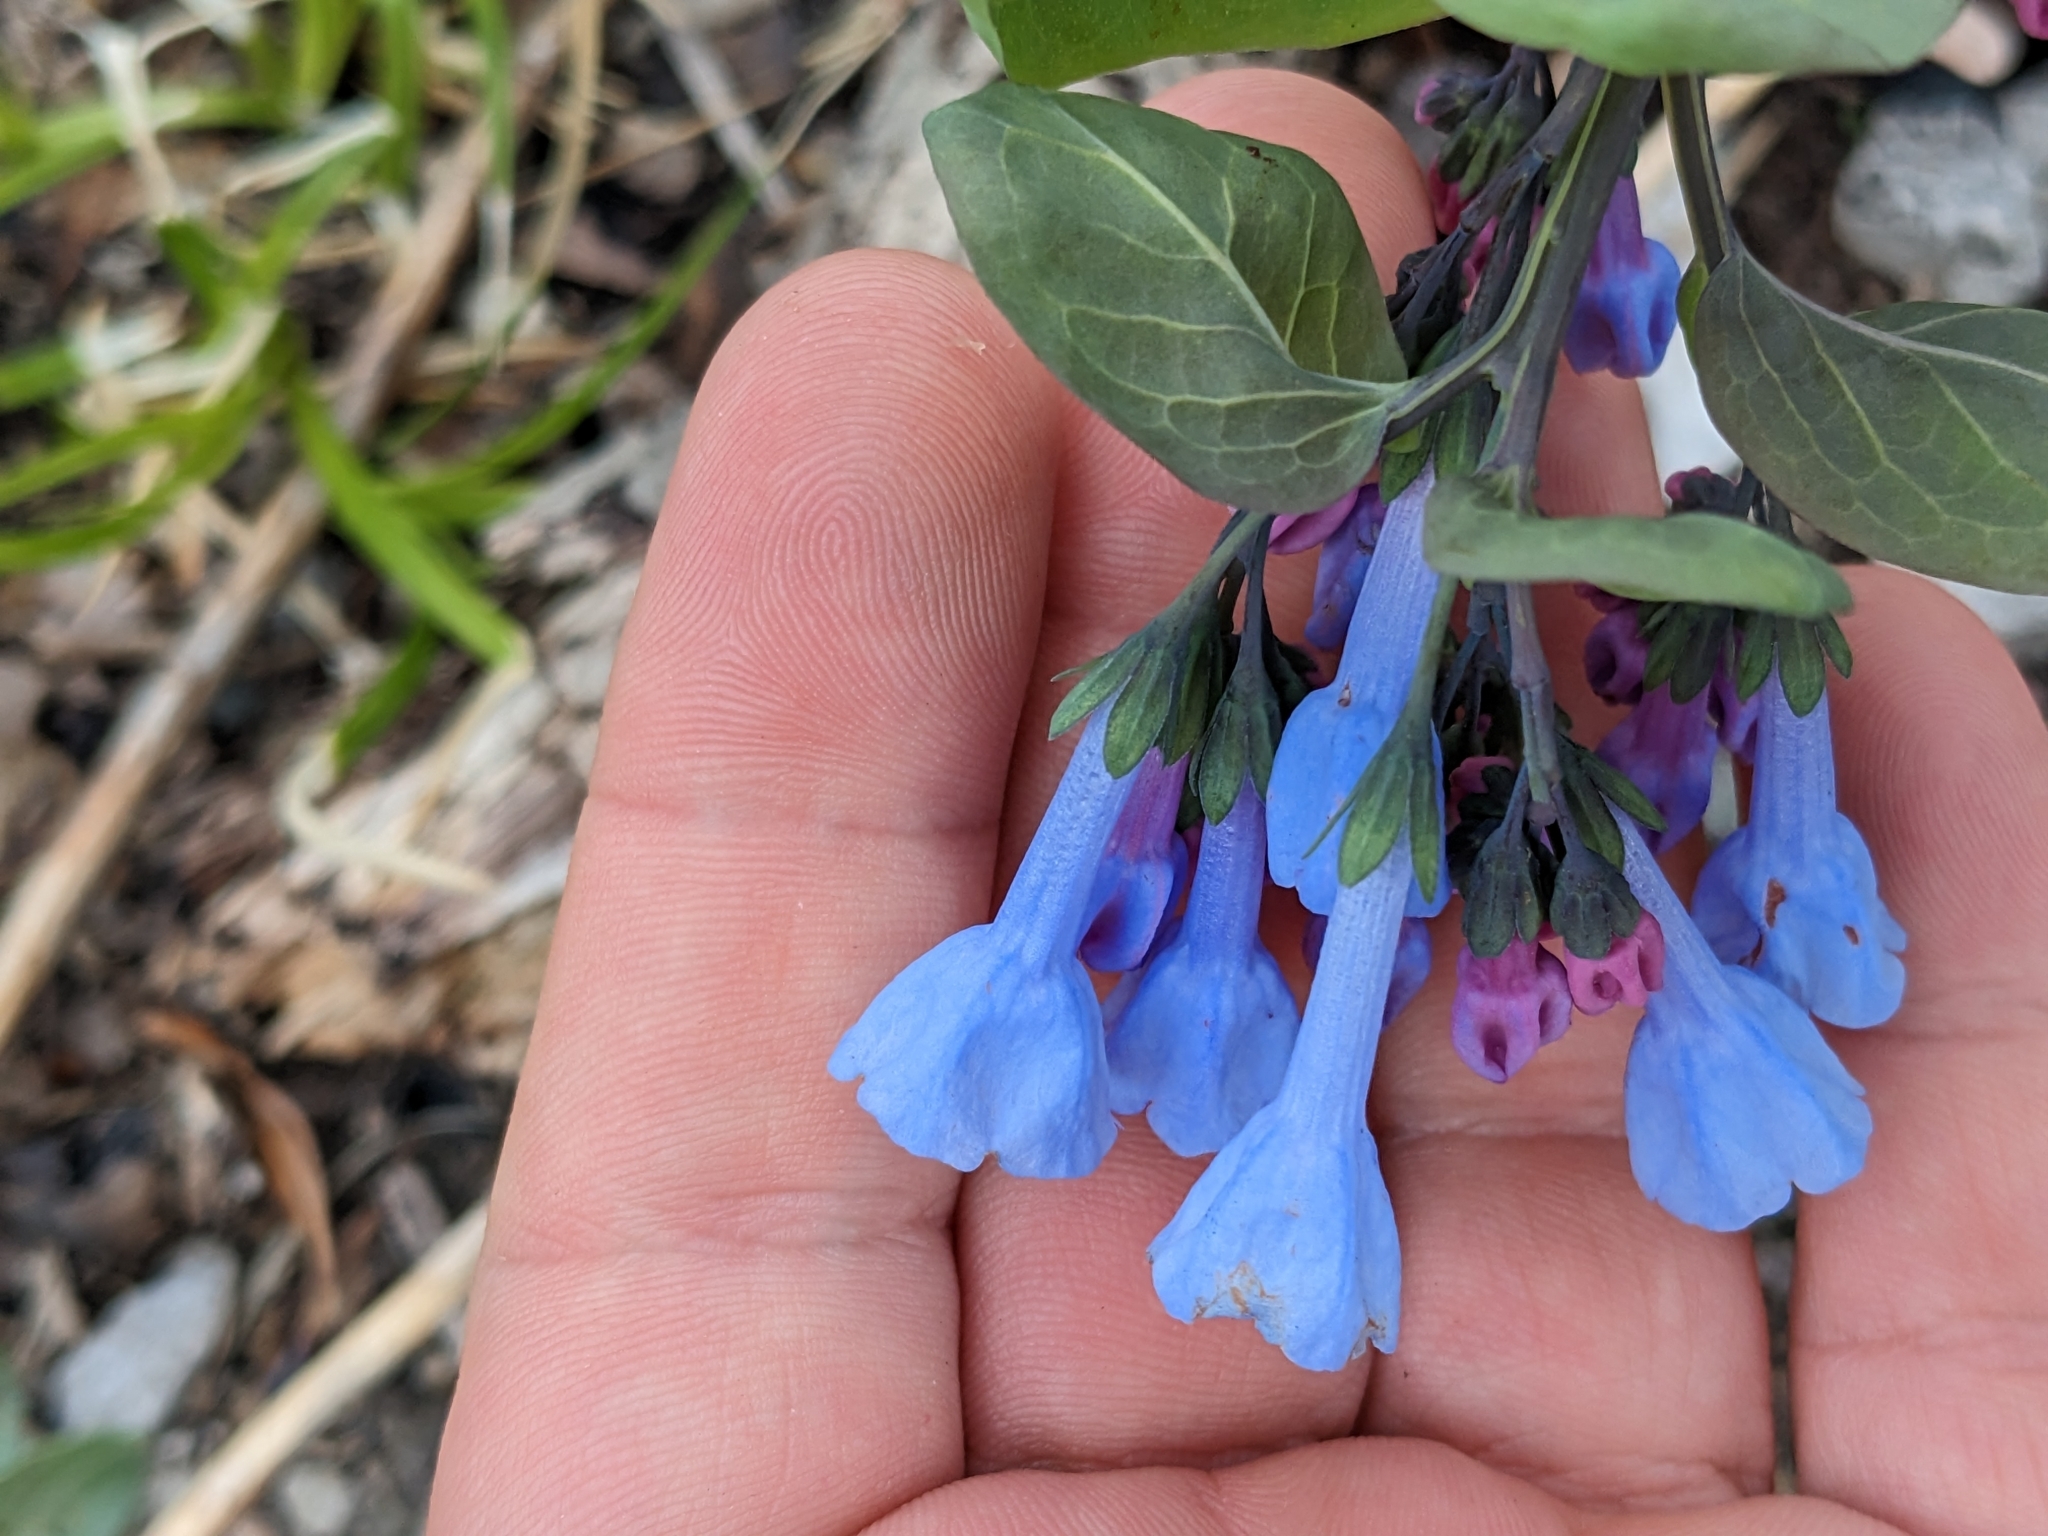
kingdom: Plantae
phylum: Tracheophyta
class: Magnoliopsida
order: Boraginales
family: Boraginaceae
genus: Mertensia
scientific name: Mertensia virginica
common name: Virginia bluebells
